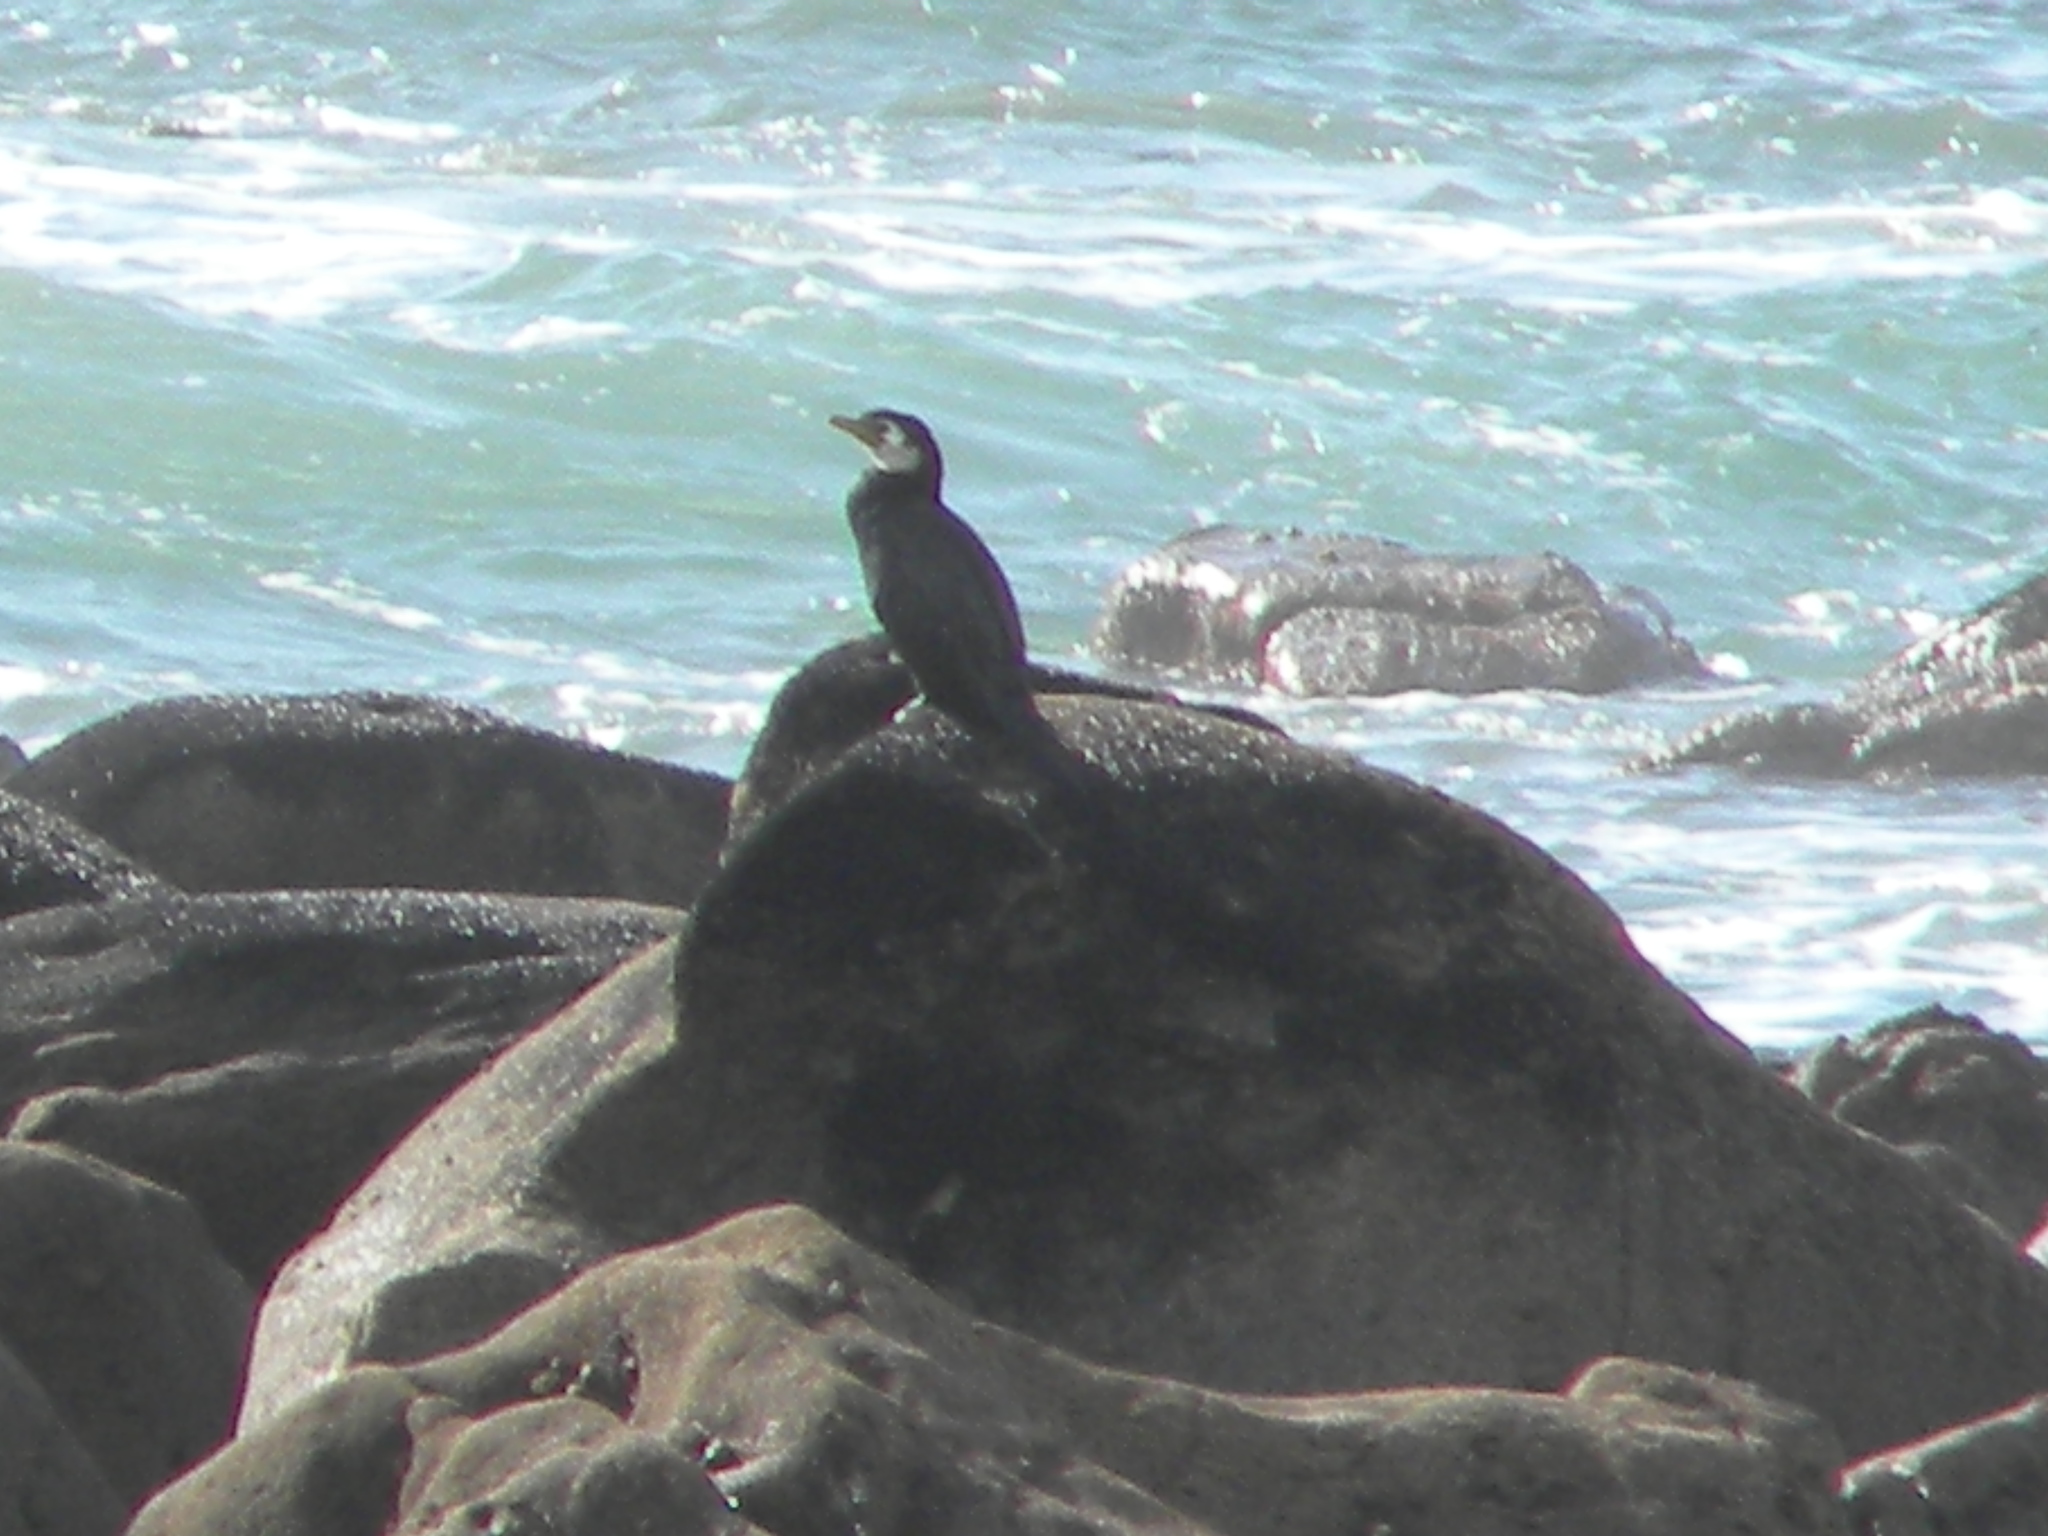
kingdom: Animalia
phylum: Chordata
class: Aves
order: Suliformes
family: Phalacrocoracidae
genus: Microcarbo
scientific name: Microcarbo melanoleucos
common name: Little pied cormorant
